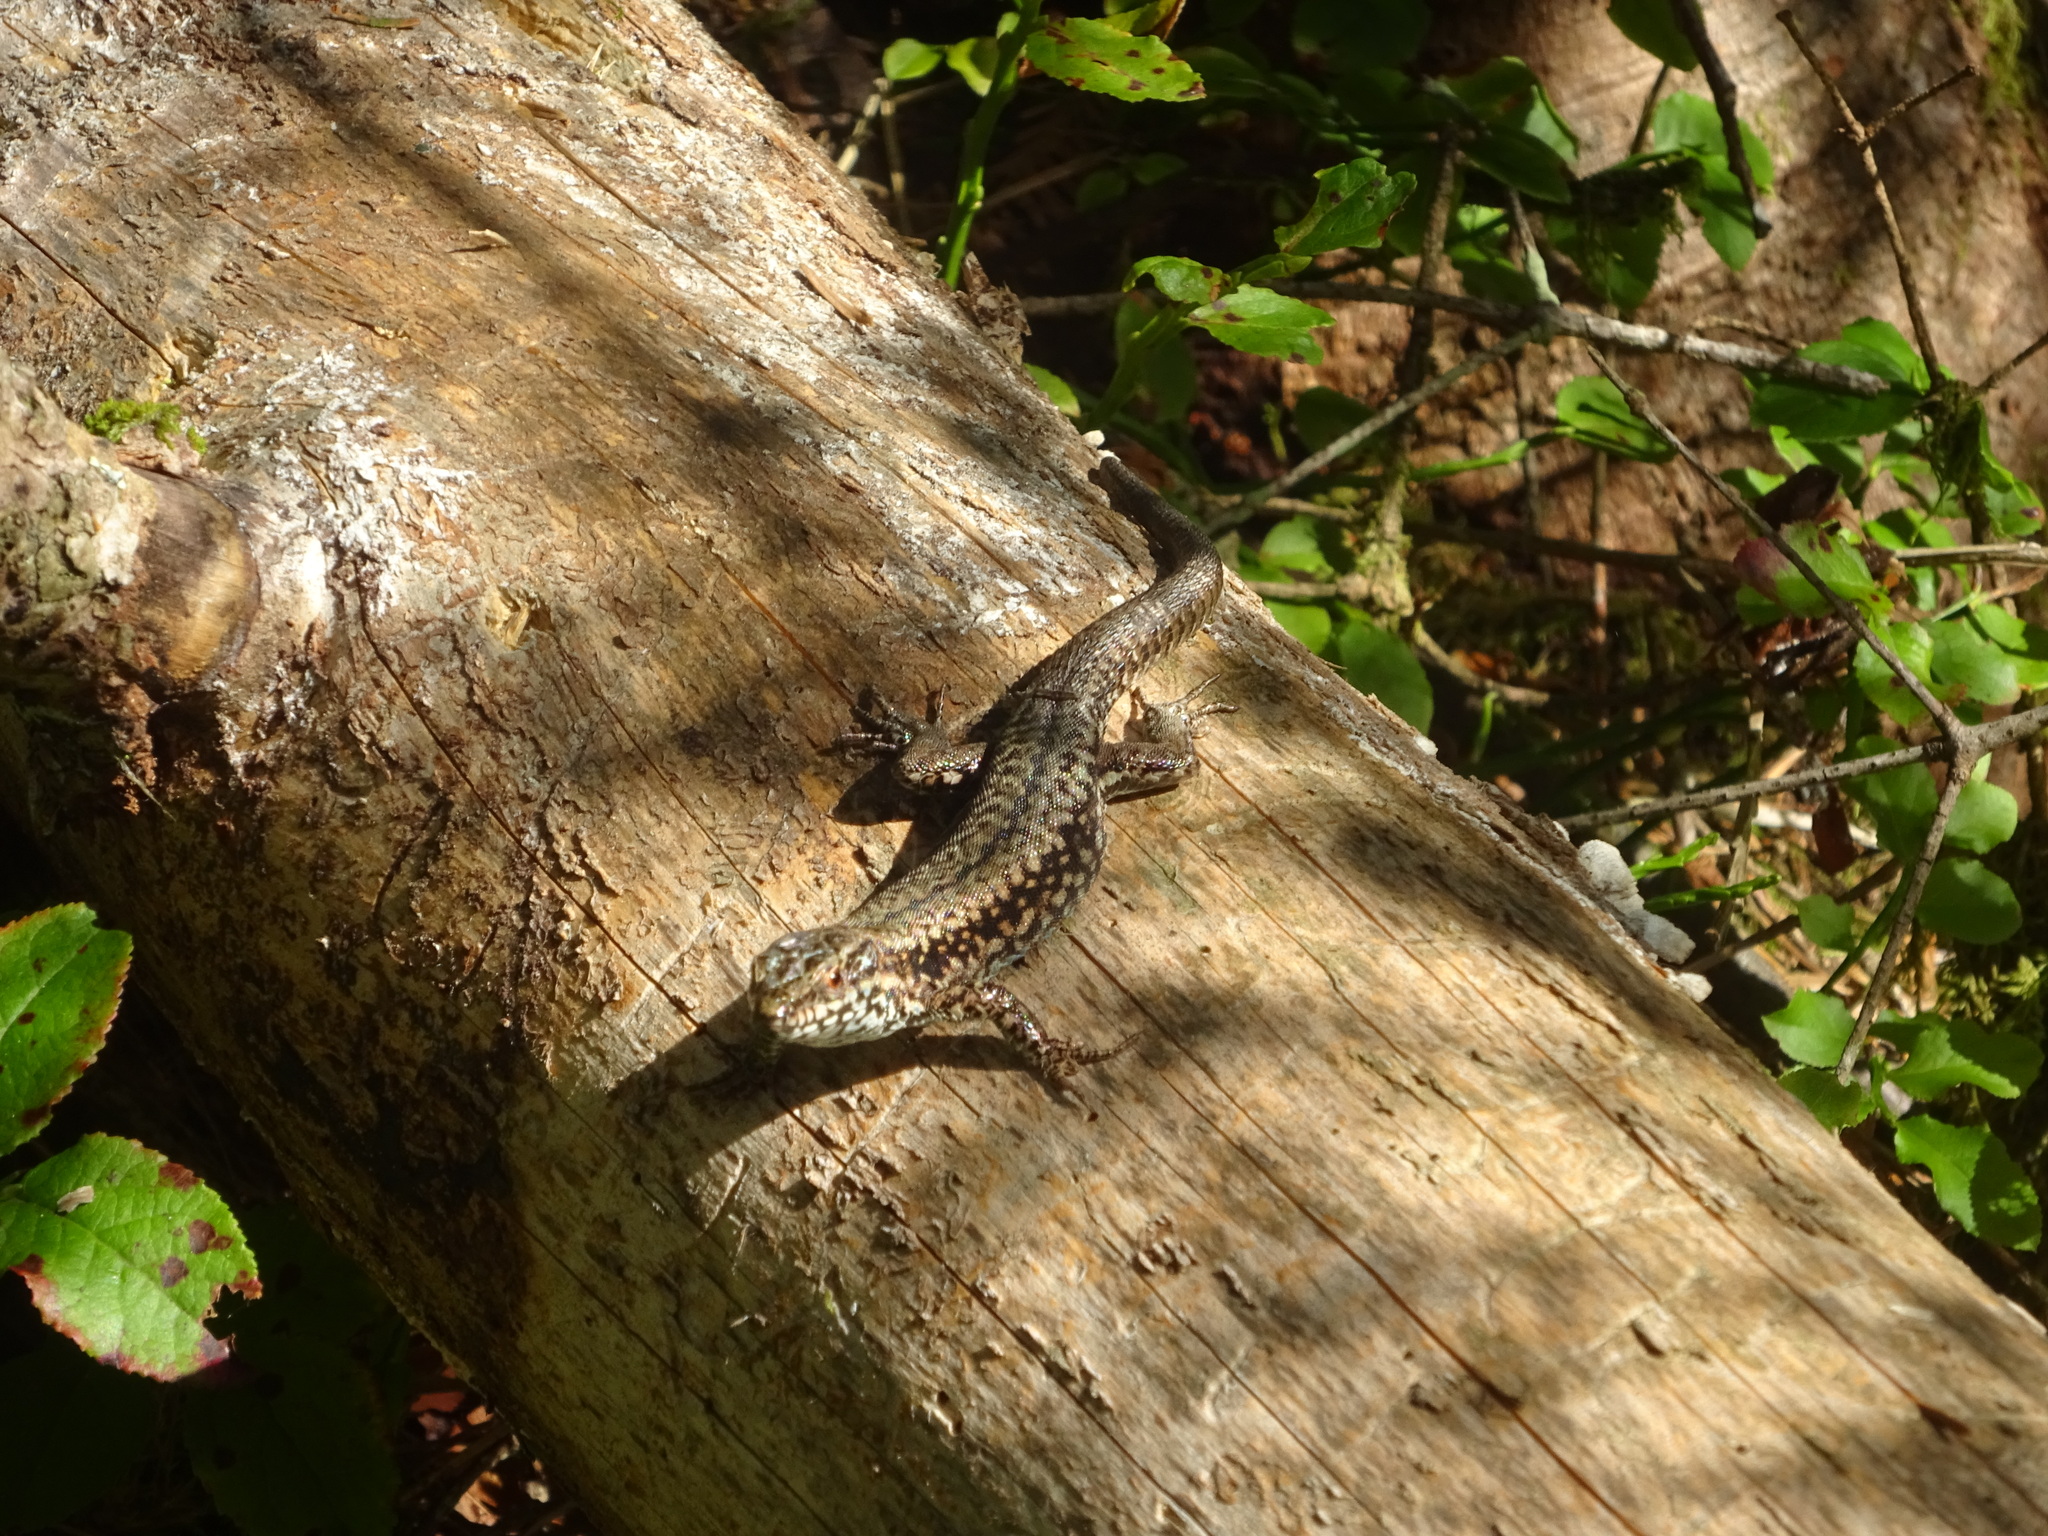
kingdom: Animalia
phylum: Chordata
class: Squamata
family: Lacertidae
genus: Podarcis
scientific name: Podarcis muralis
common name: Common wall lizard
